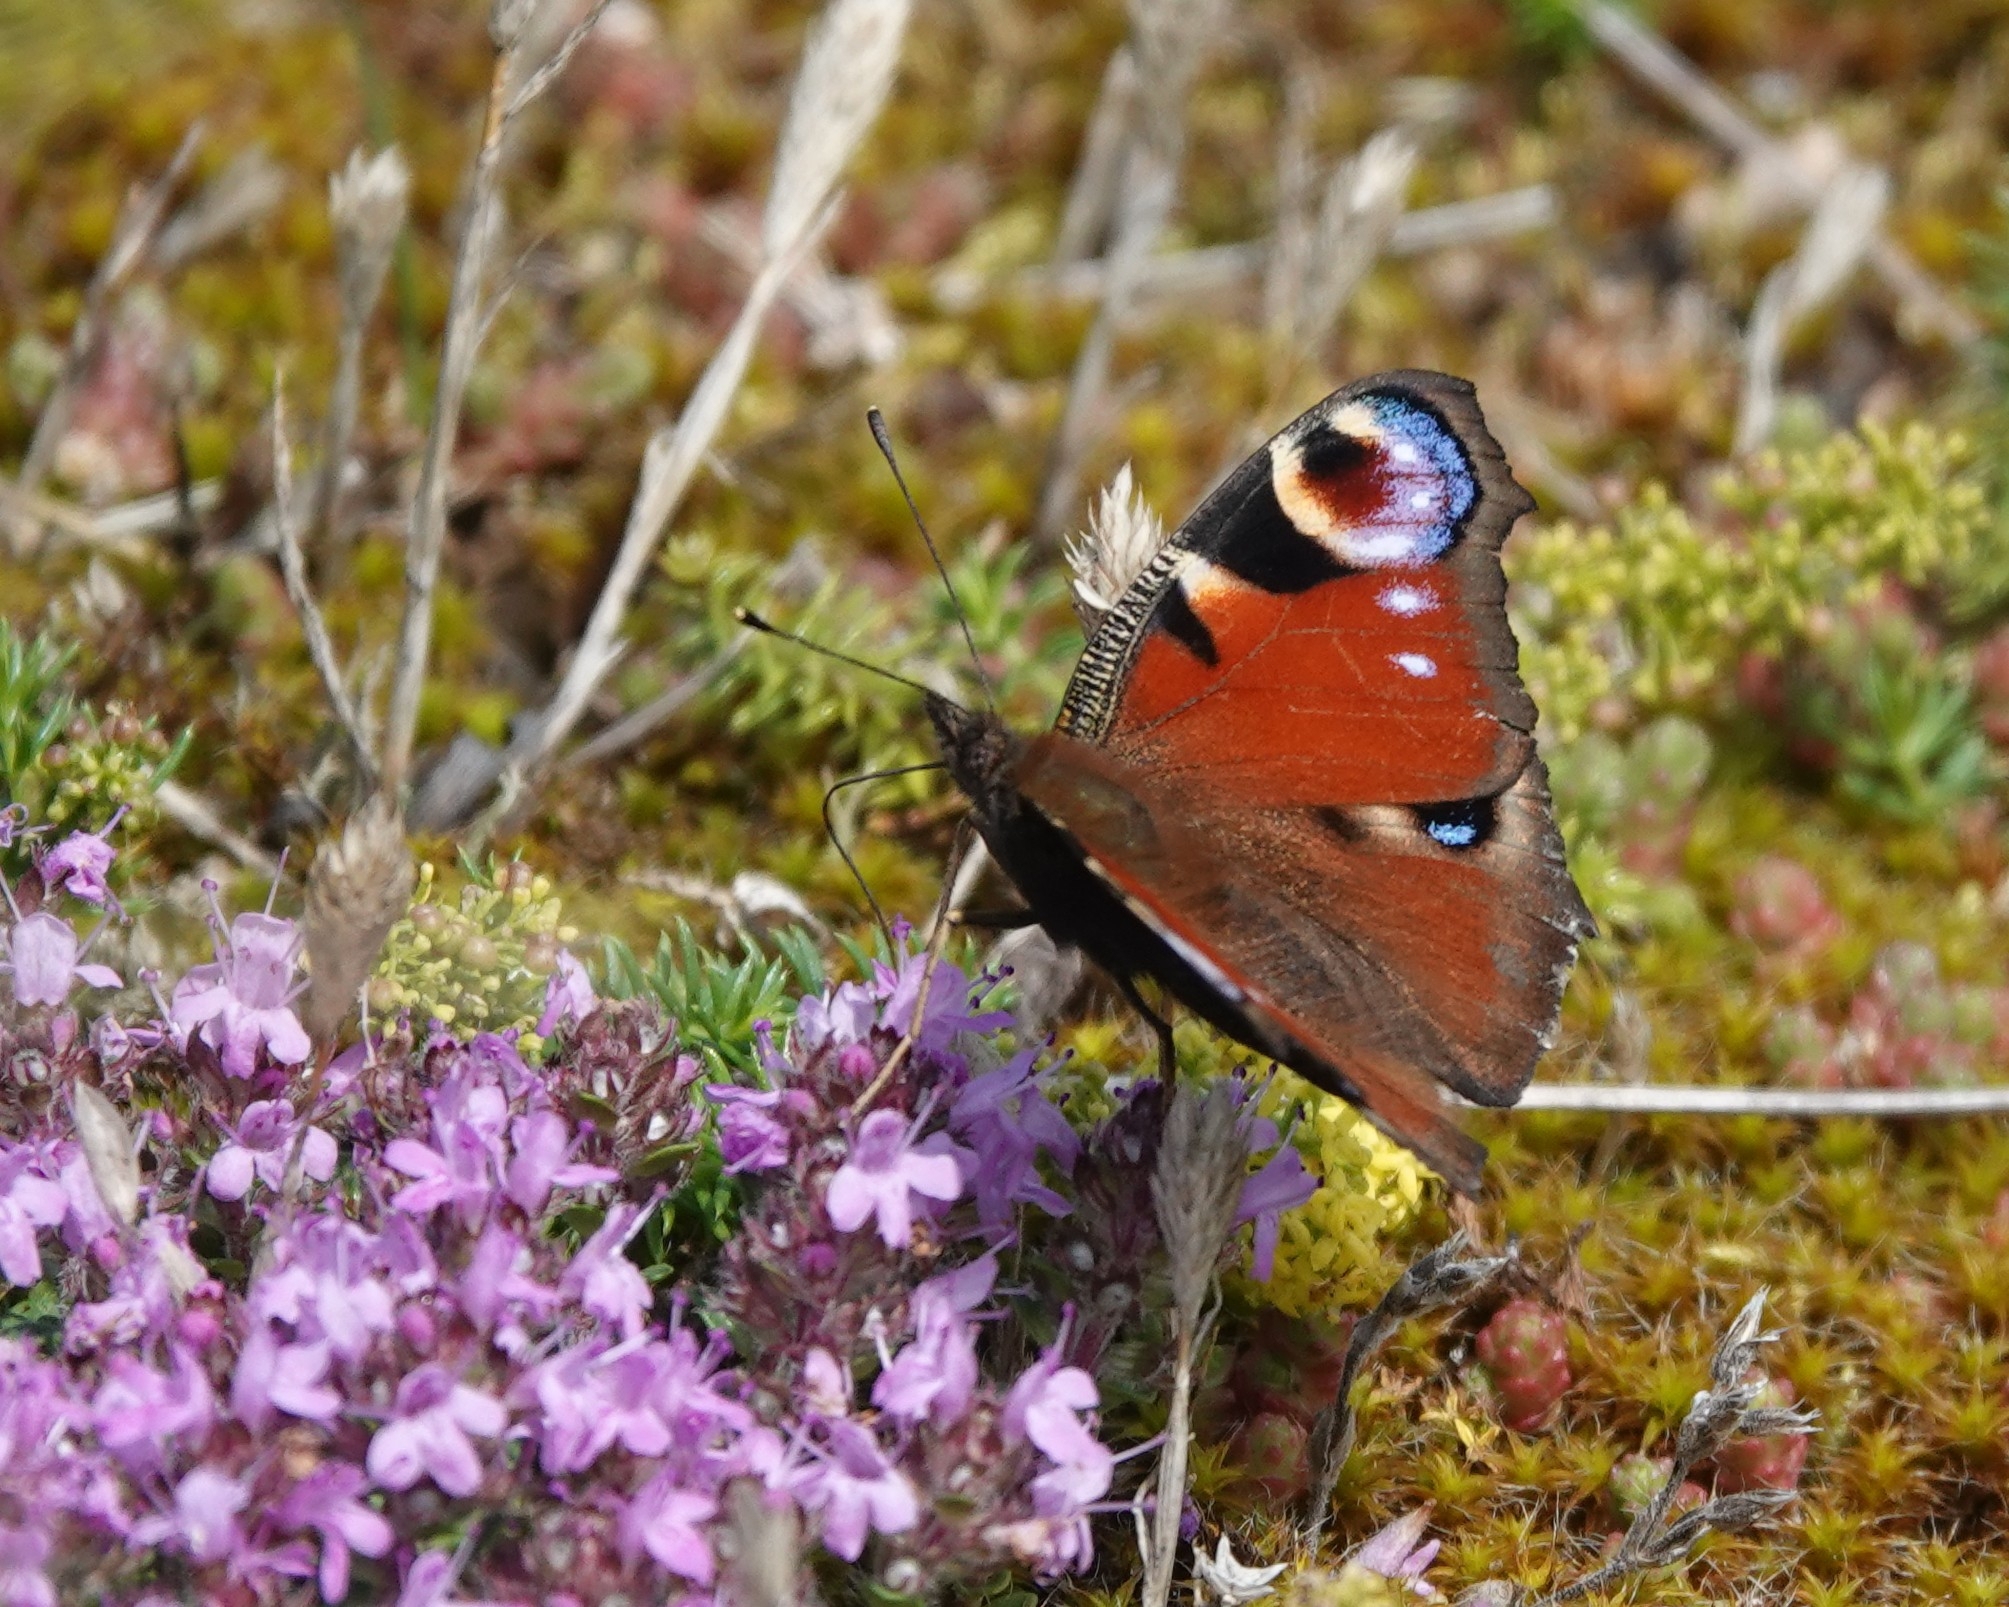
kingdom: Animalia
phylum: Arthropoda
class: Insecta
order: Lepidoptera
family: Nymphalidae
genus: Aglais
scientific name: Aglais io
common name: Peacock
